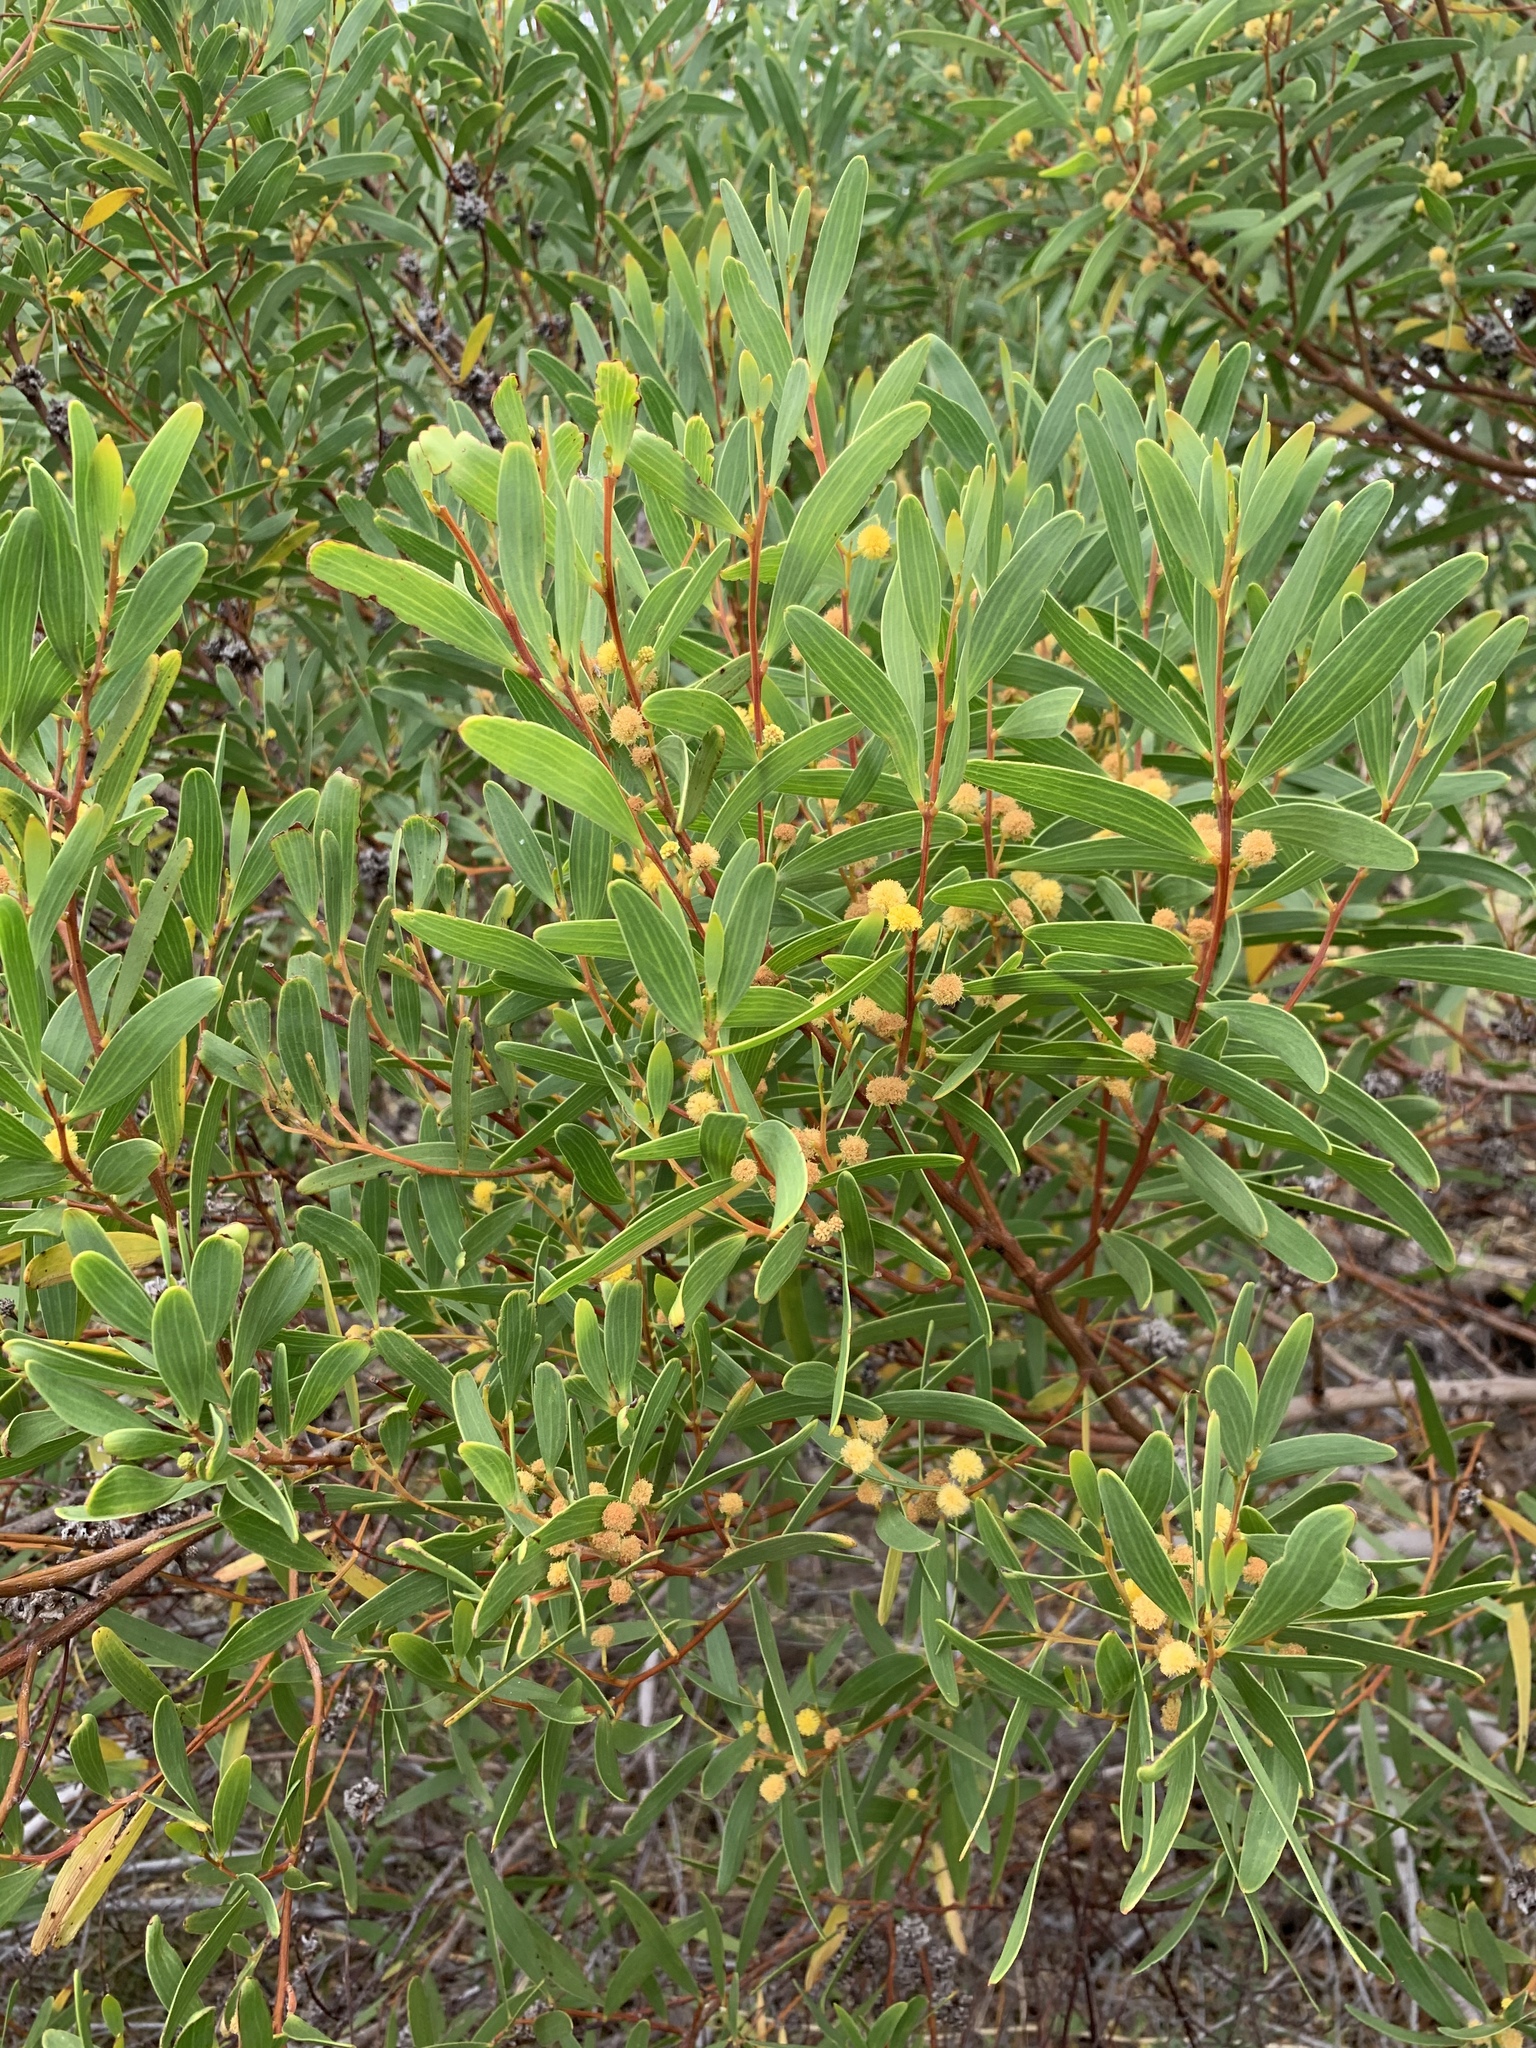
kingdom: Plantae
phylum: Tracheophyta
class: Magnoliopsida
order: Fabales
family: Fabaceae
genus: Acacia
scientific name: Acacia cyclops
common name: Coastal wattle
